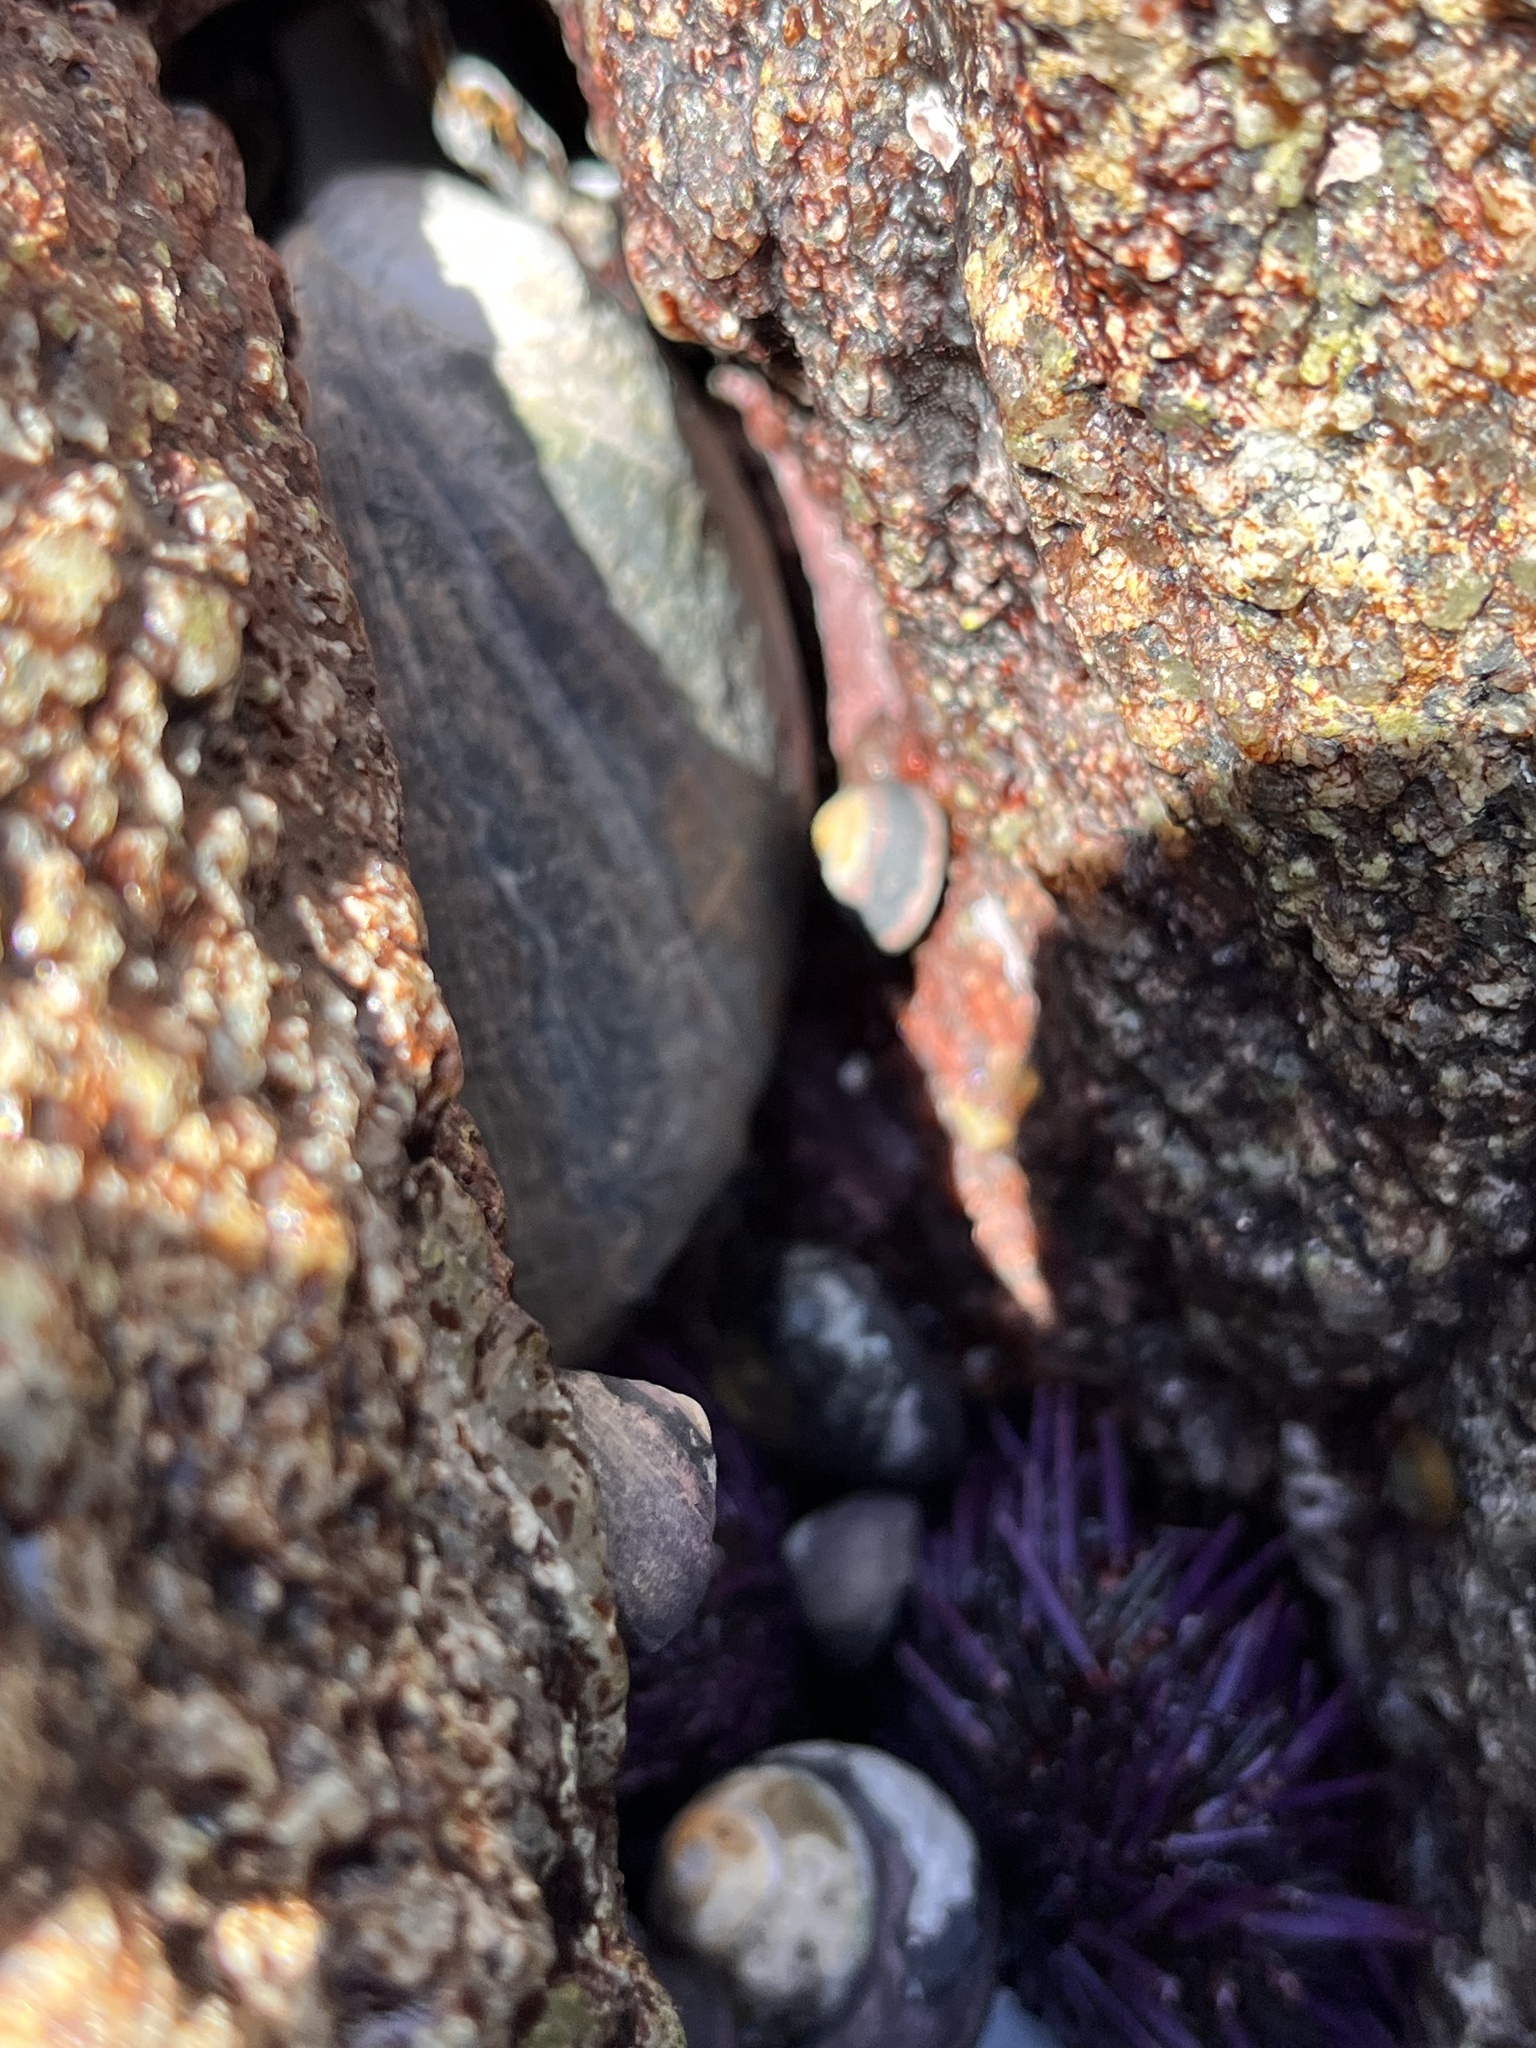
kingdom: Animalia
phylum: Mollusca
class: Gastropoda
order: Lepetellida
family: Haliotidae
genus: Haliotis
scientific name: Haliotis cracherodii
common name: Black abalone
